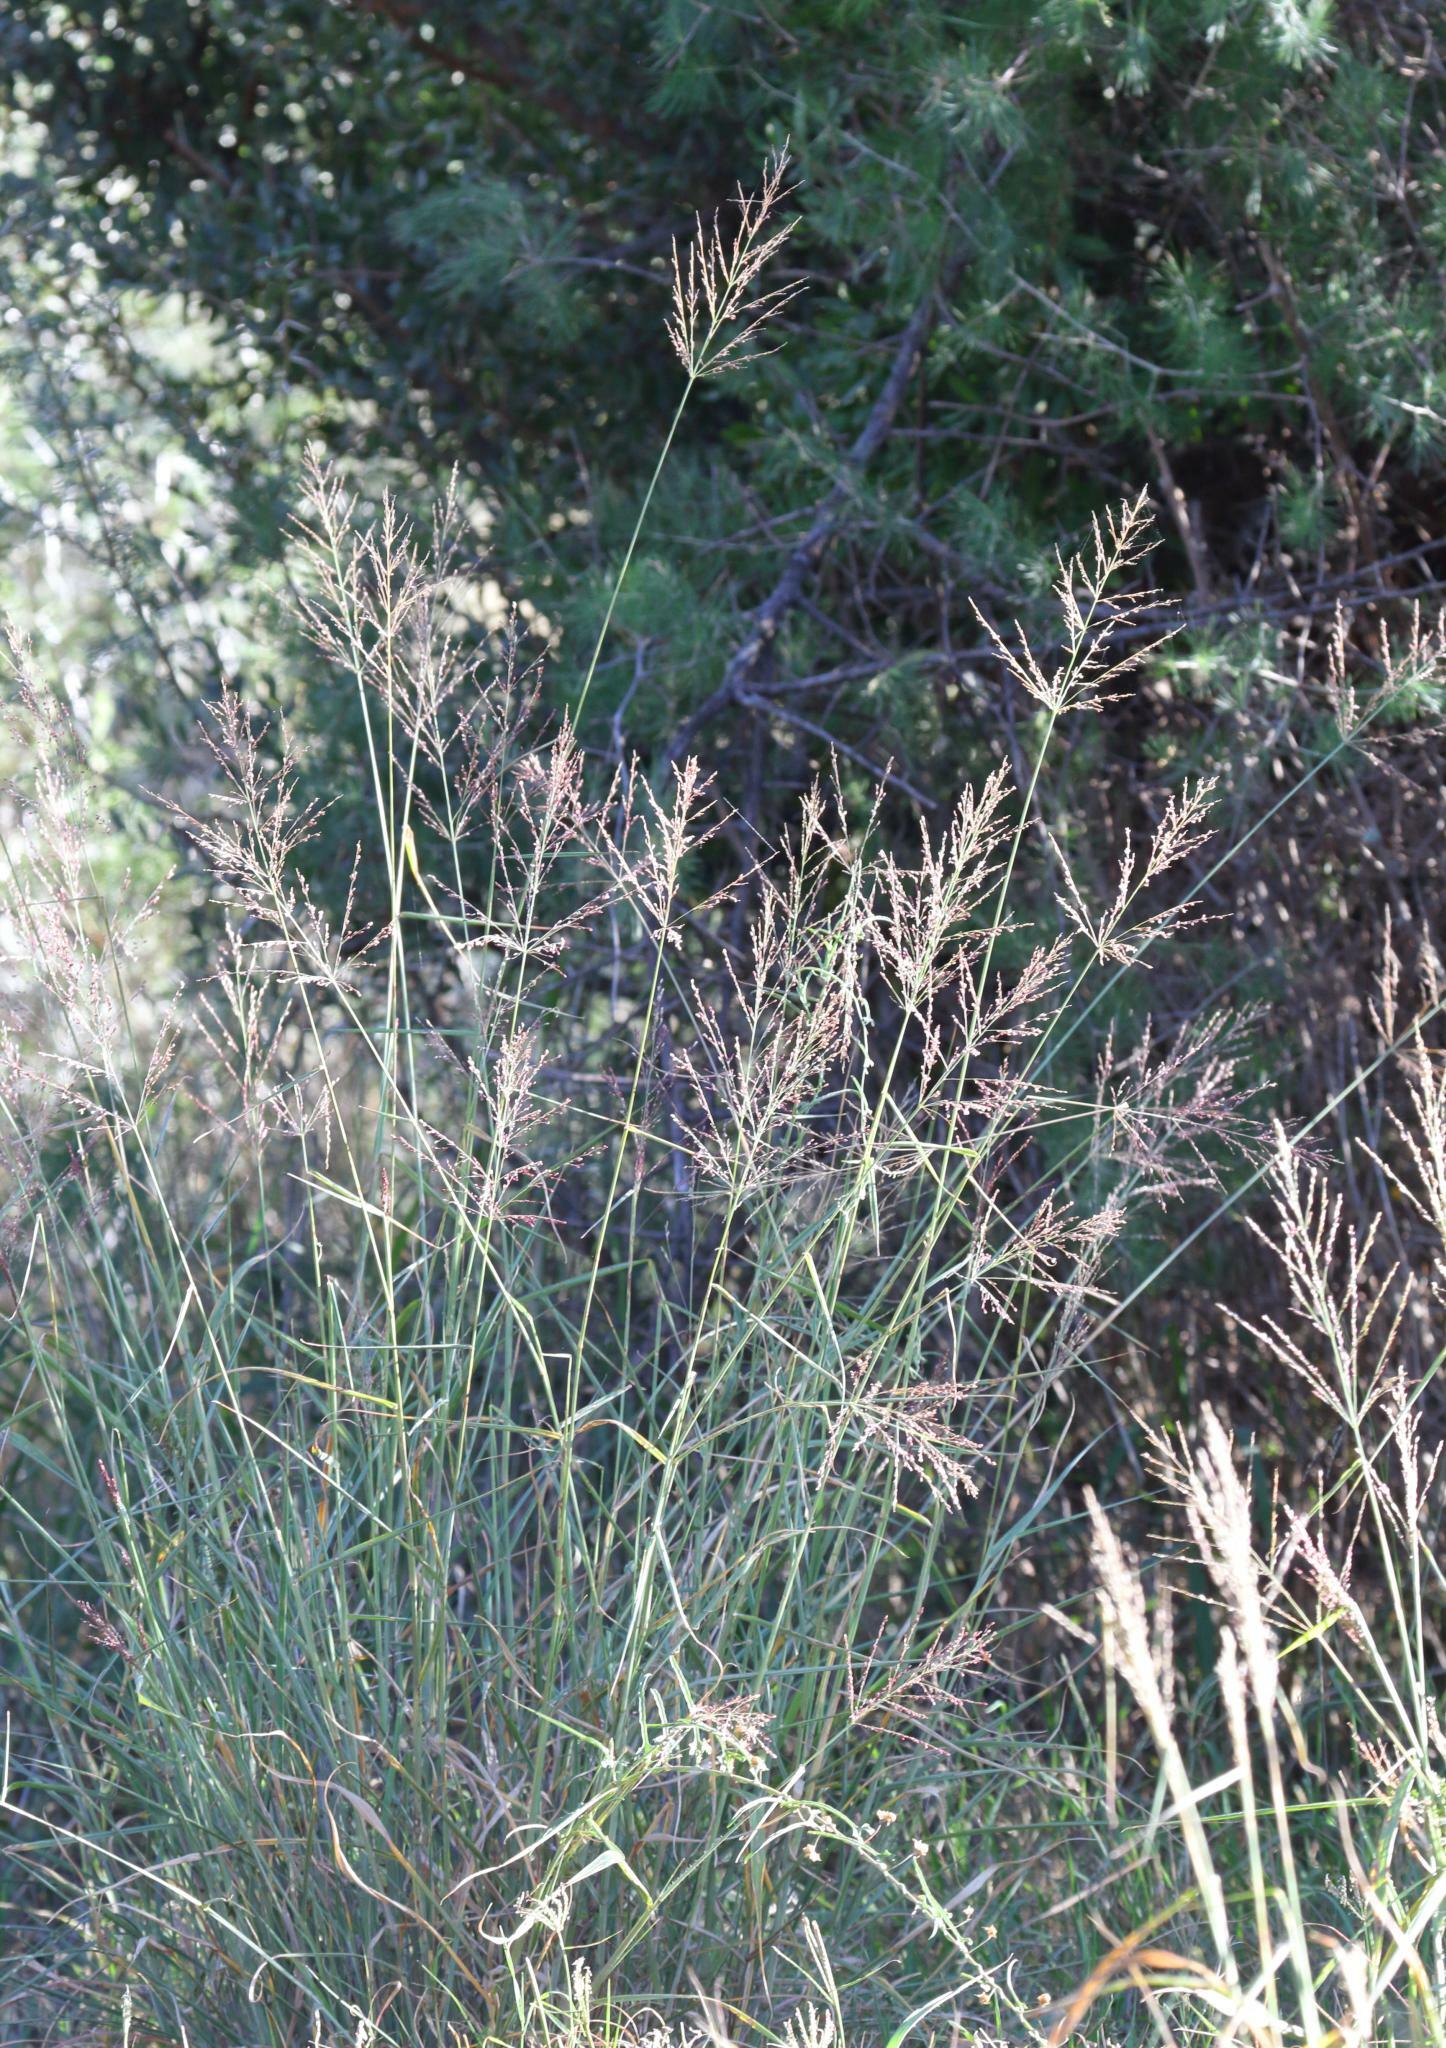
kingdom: Plantae
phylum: Tracheophyta
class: Liliopsida
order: Poales
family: Poaceae
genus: Megathyrsus
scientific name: Megathyrsus maximus
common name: Guineagrass
